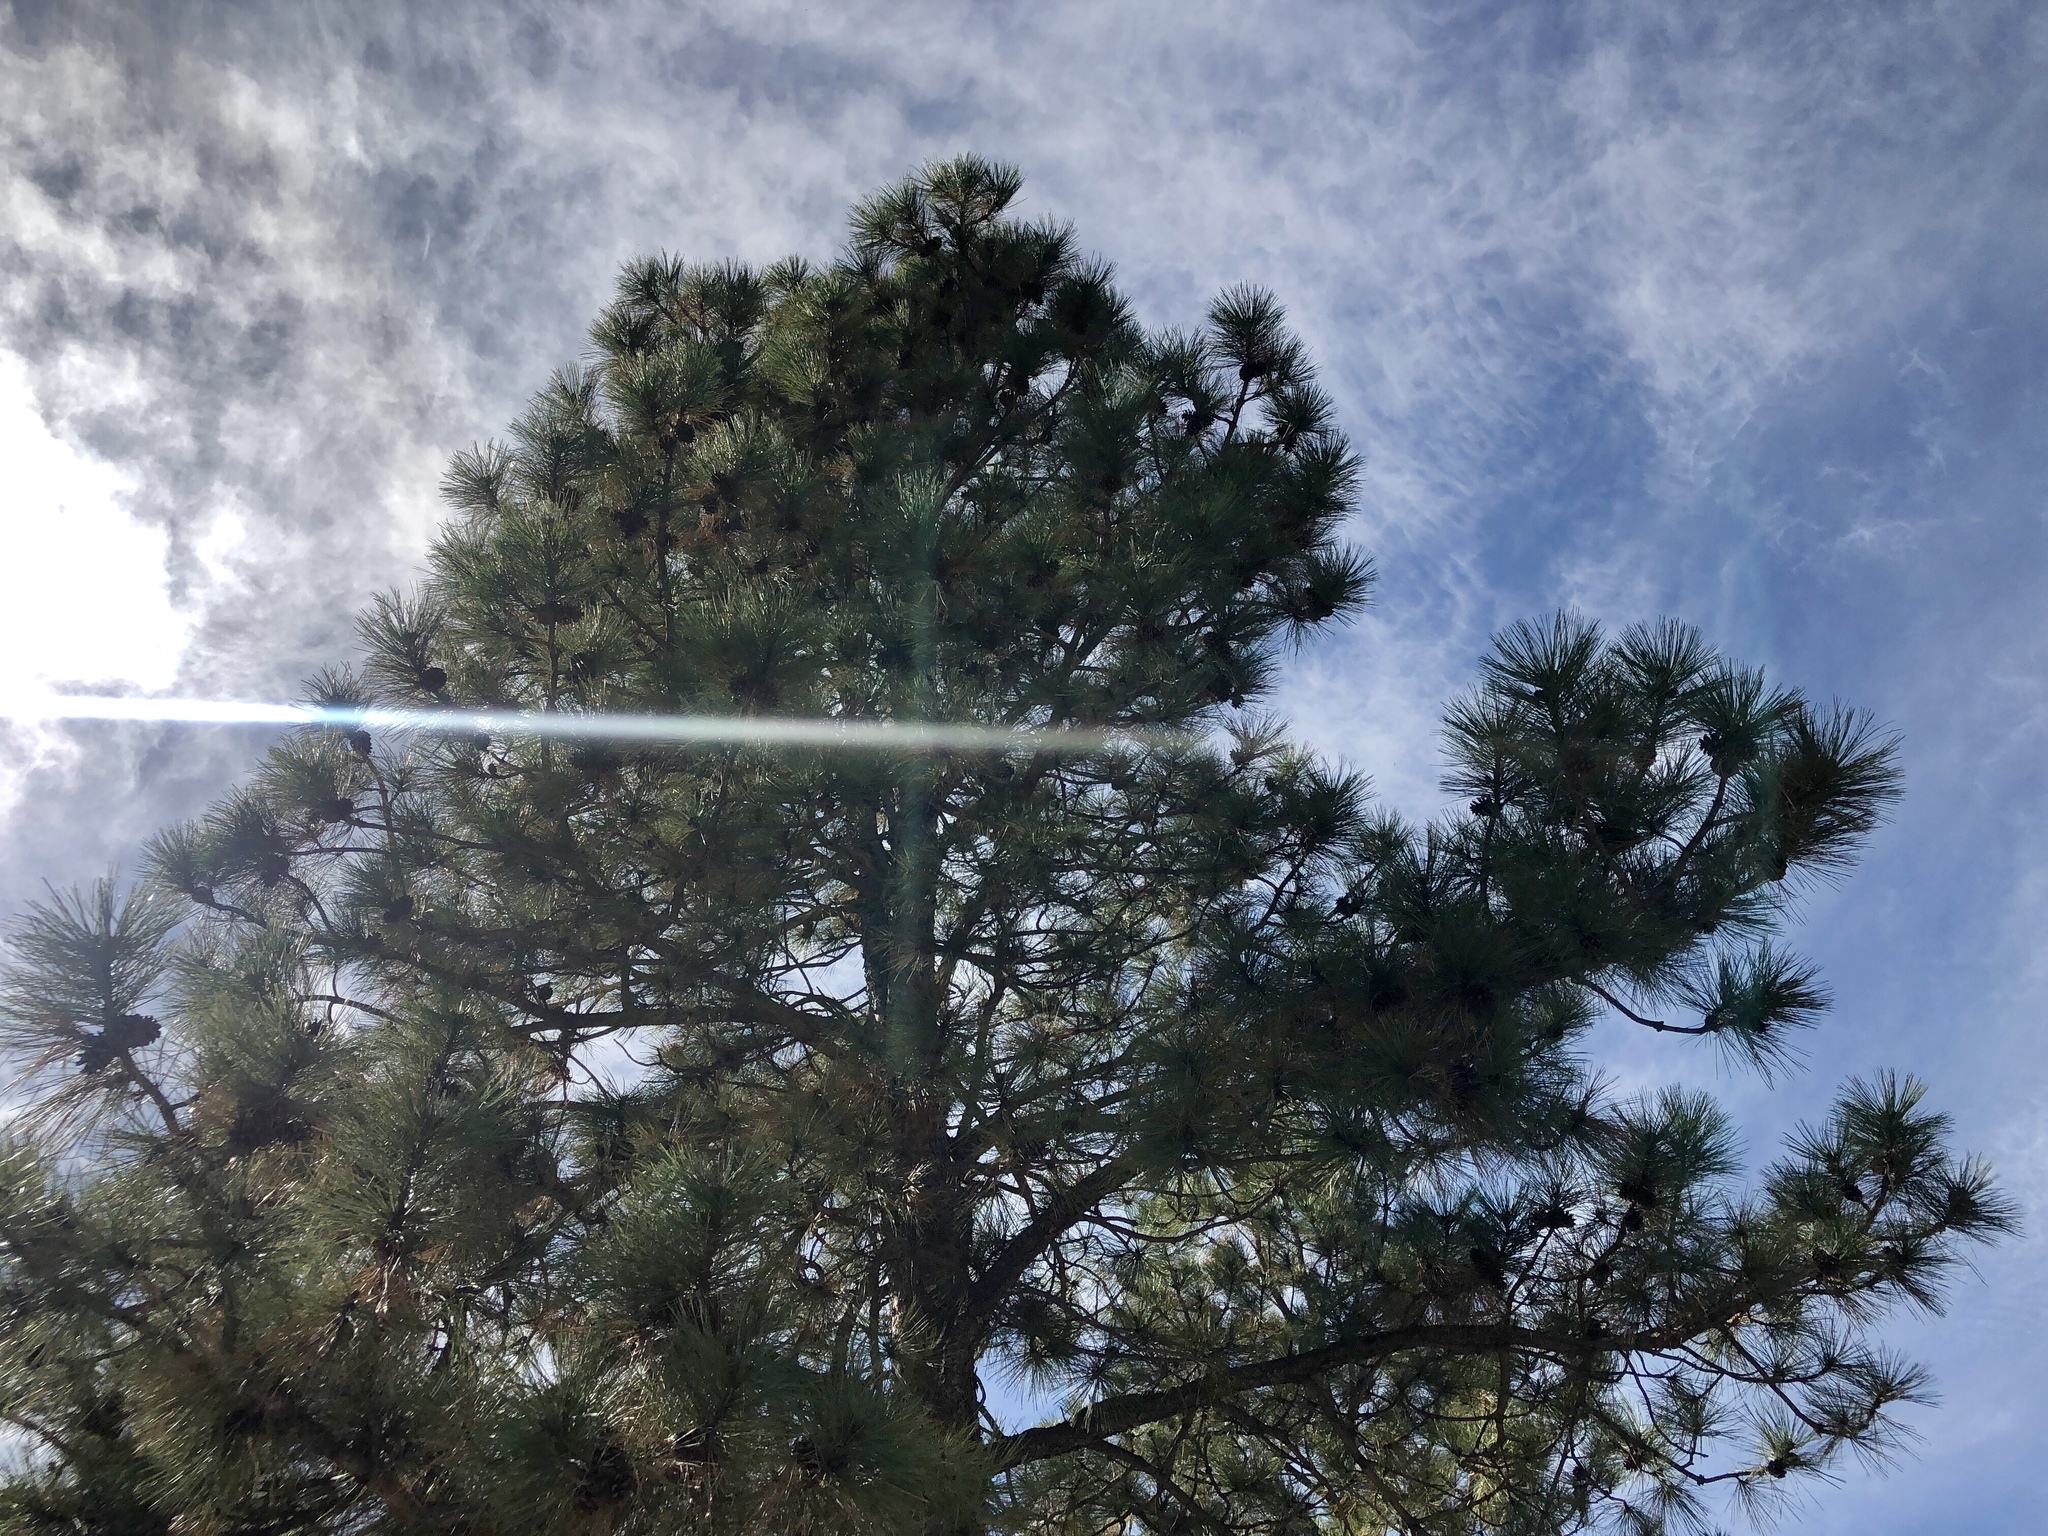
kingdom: Plantae
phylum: Tracheophyta
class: Pinopsida
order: Pinales
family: Pinaceae
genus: Pinus
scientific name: Pinus ponderosa
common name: Western yellow-pine
